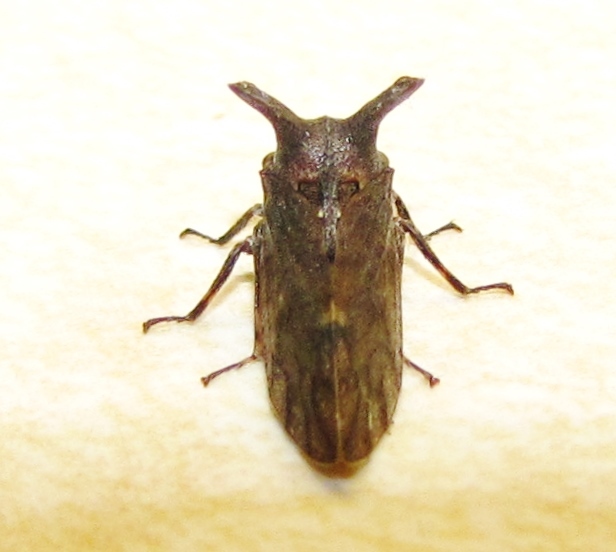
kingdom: Animalia
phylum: Arthropoda
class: Insecta
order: Hemiptera
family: Membracidae
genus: Microcentrus
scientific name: Microcentrus perdita
